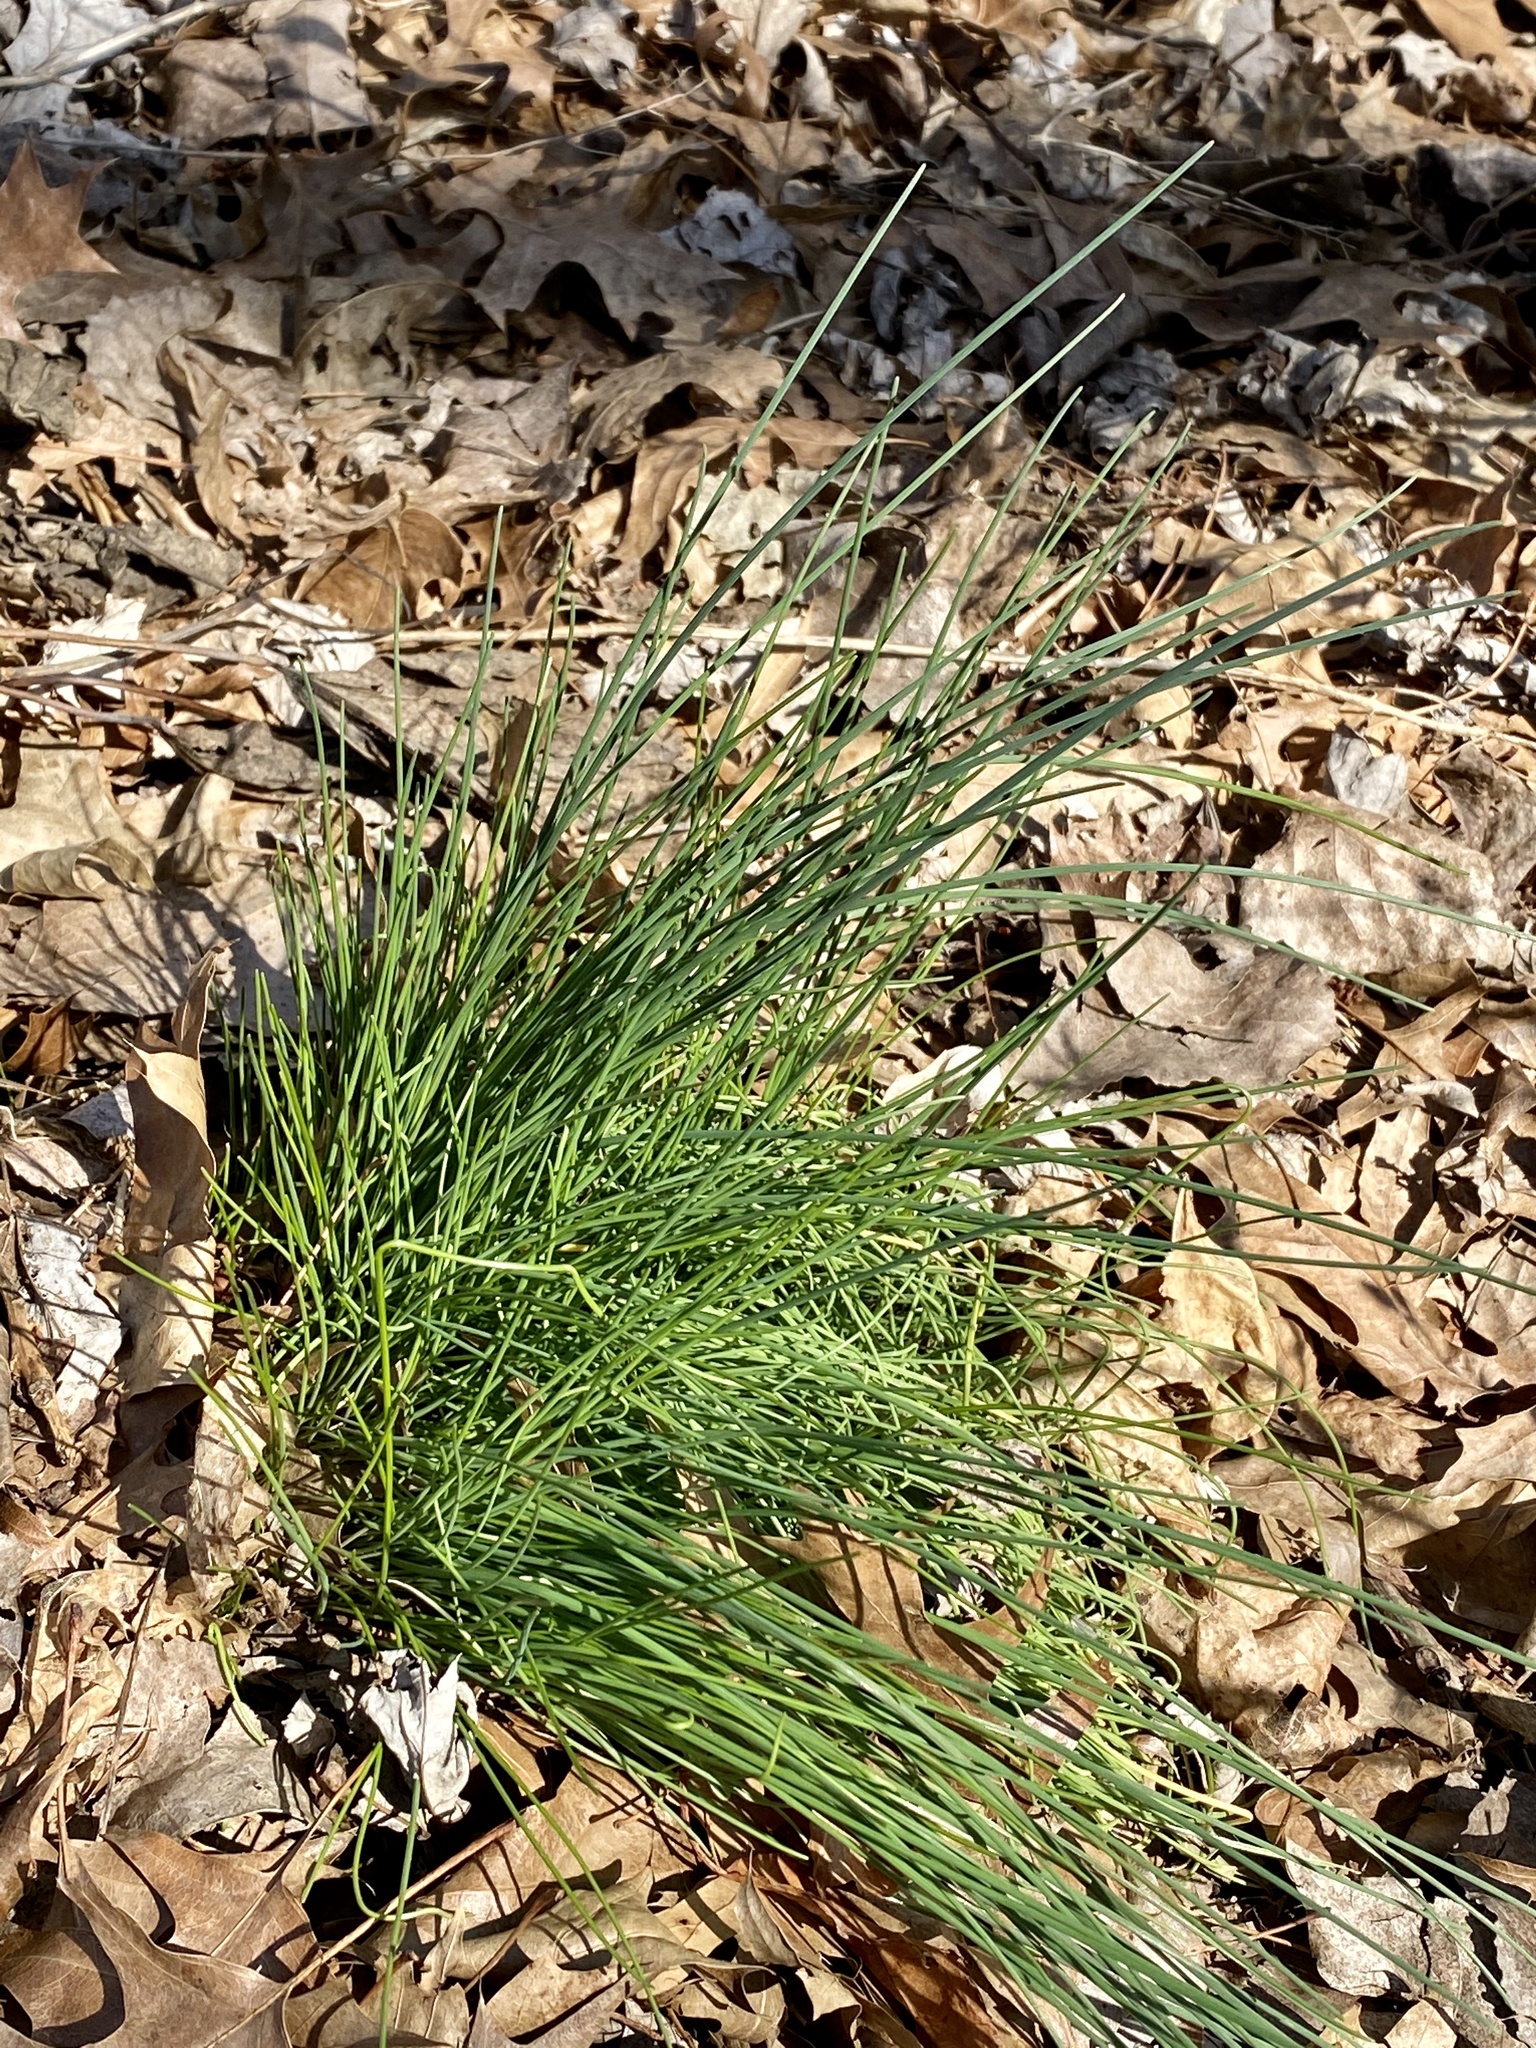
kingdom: Plantae
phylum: Tracheophyta
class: Liliopsida
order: Asparagales
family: Amaryllidaceae
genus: Allium
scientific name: Allium vineale
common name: Crow garlic
